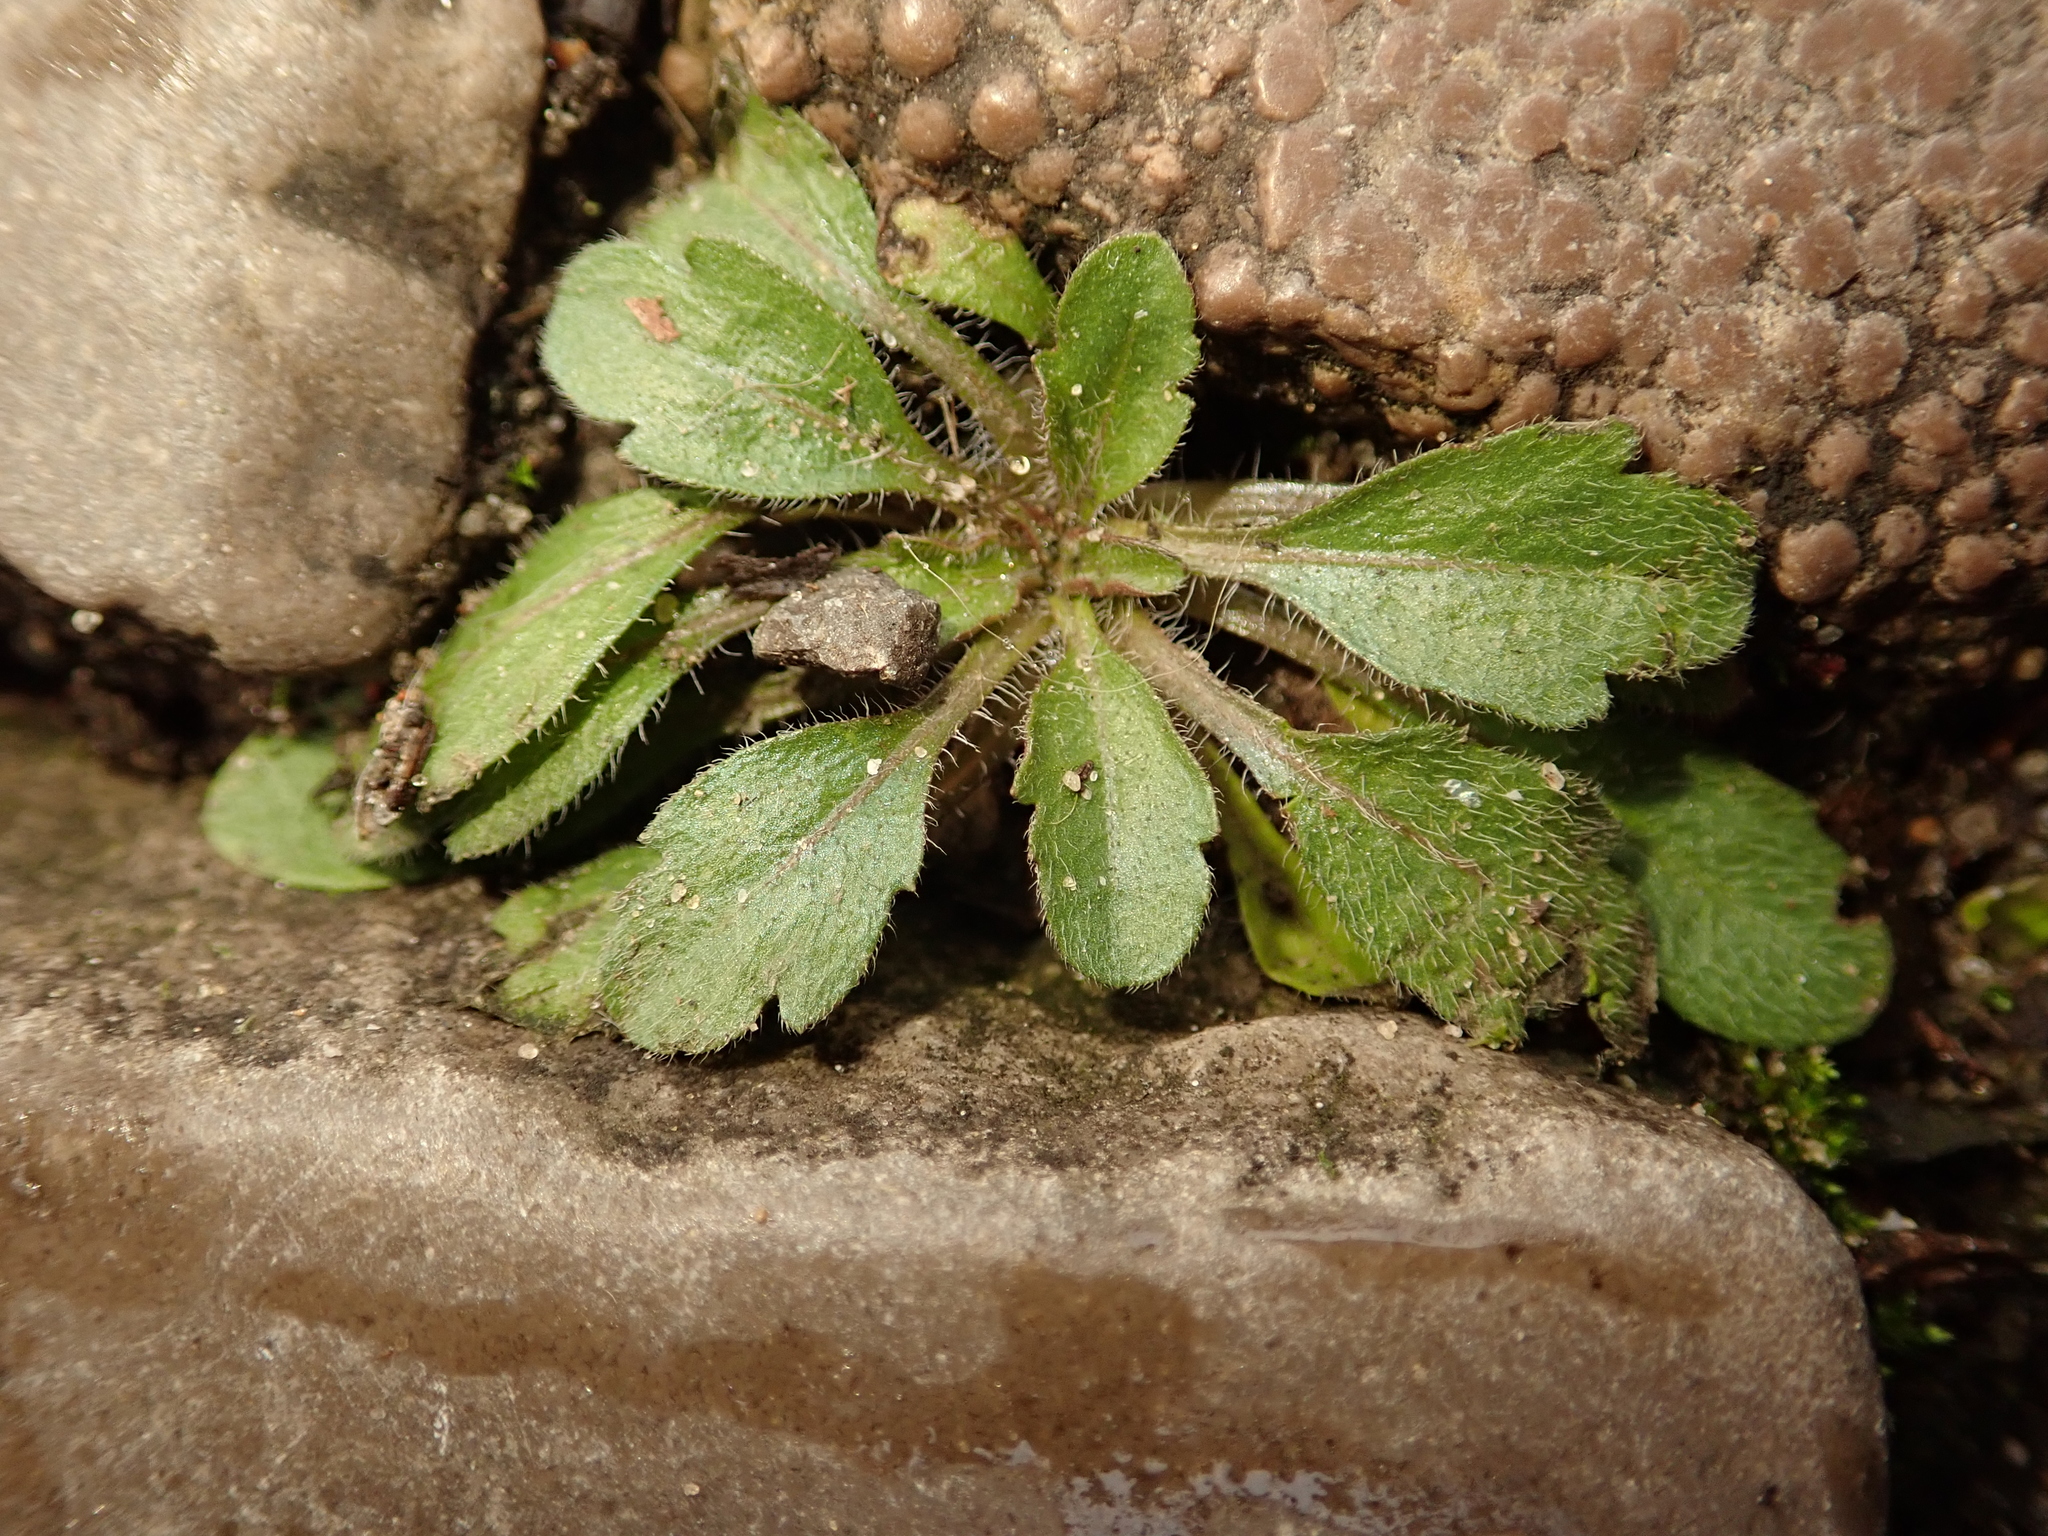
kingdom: Plantae
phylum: Tracheophyta
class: Magnoliopsida
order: Asterales
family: Asteraceae
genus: Erigeron
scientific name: Erigeron canadensis
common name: Canadian fleabane
